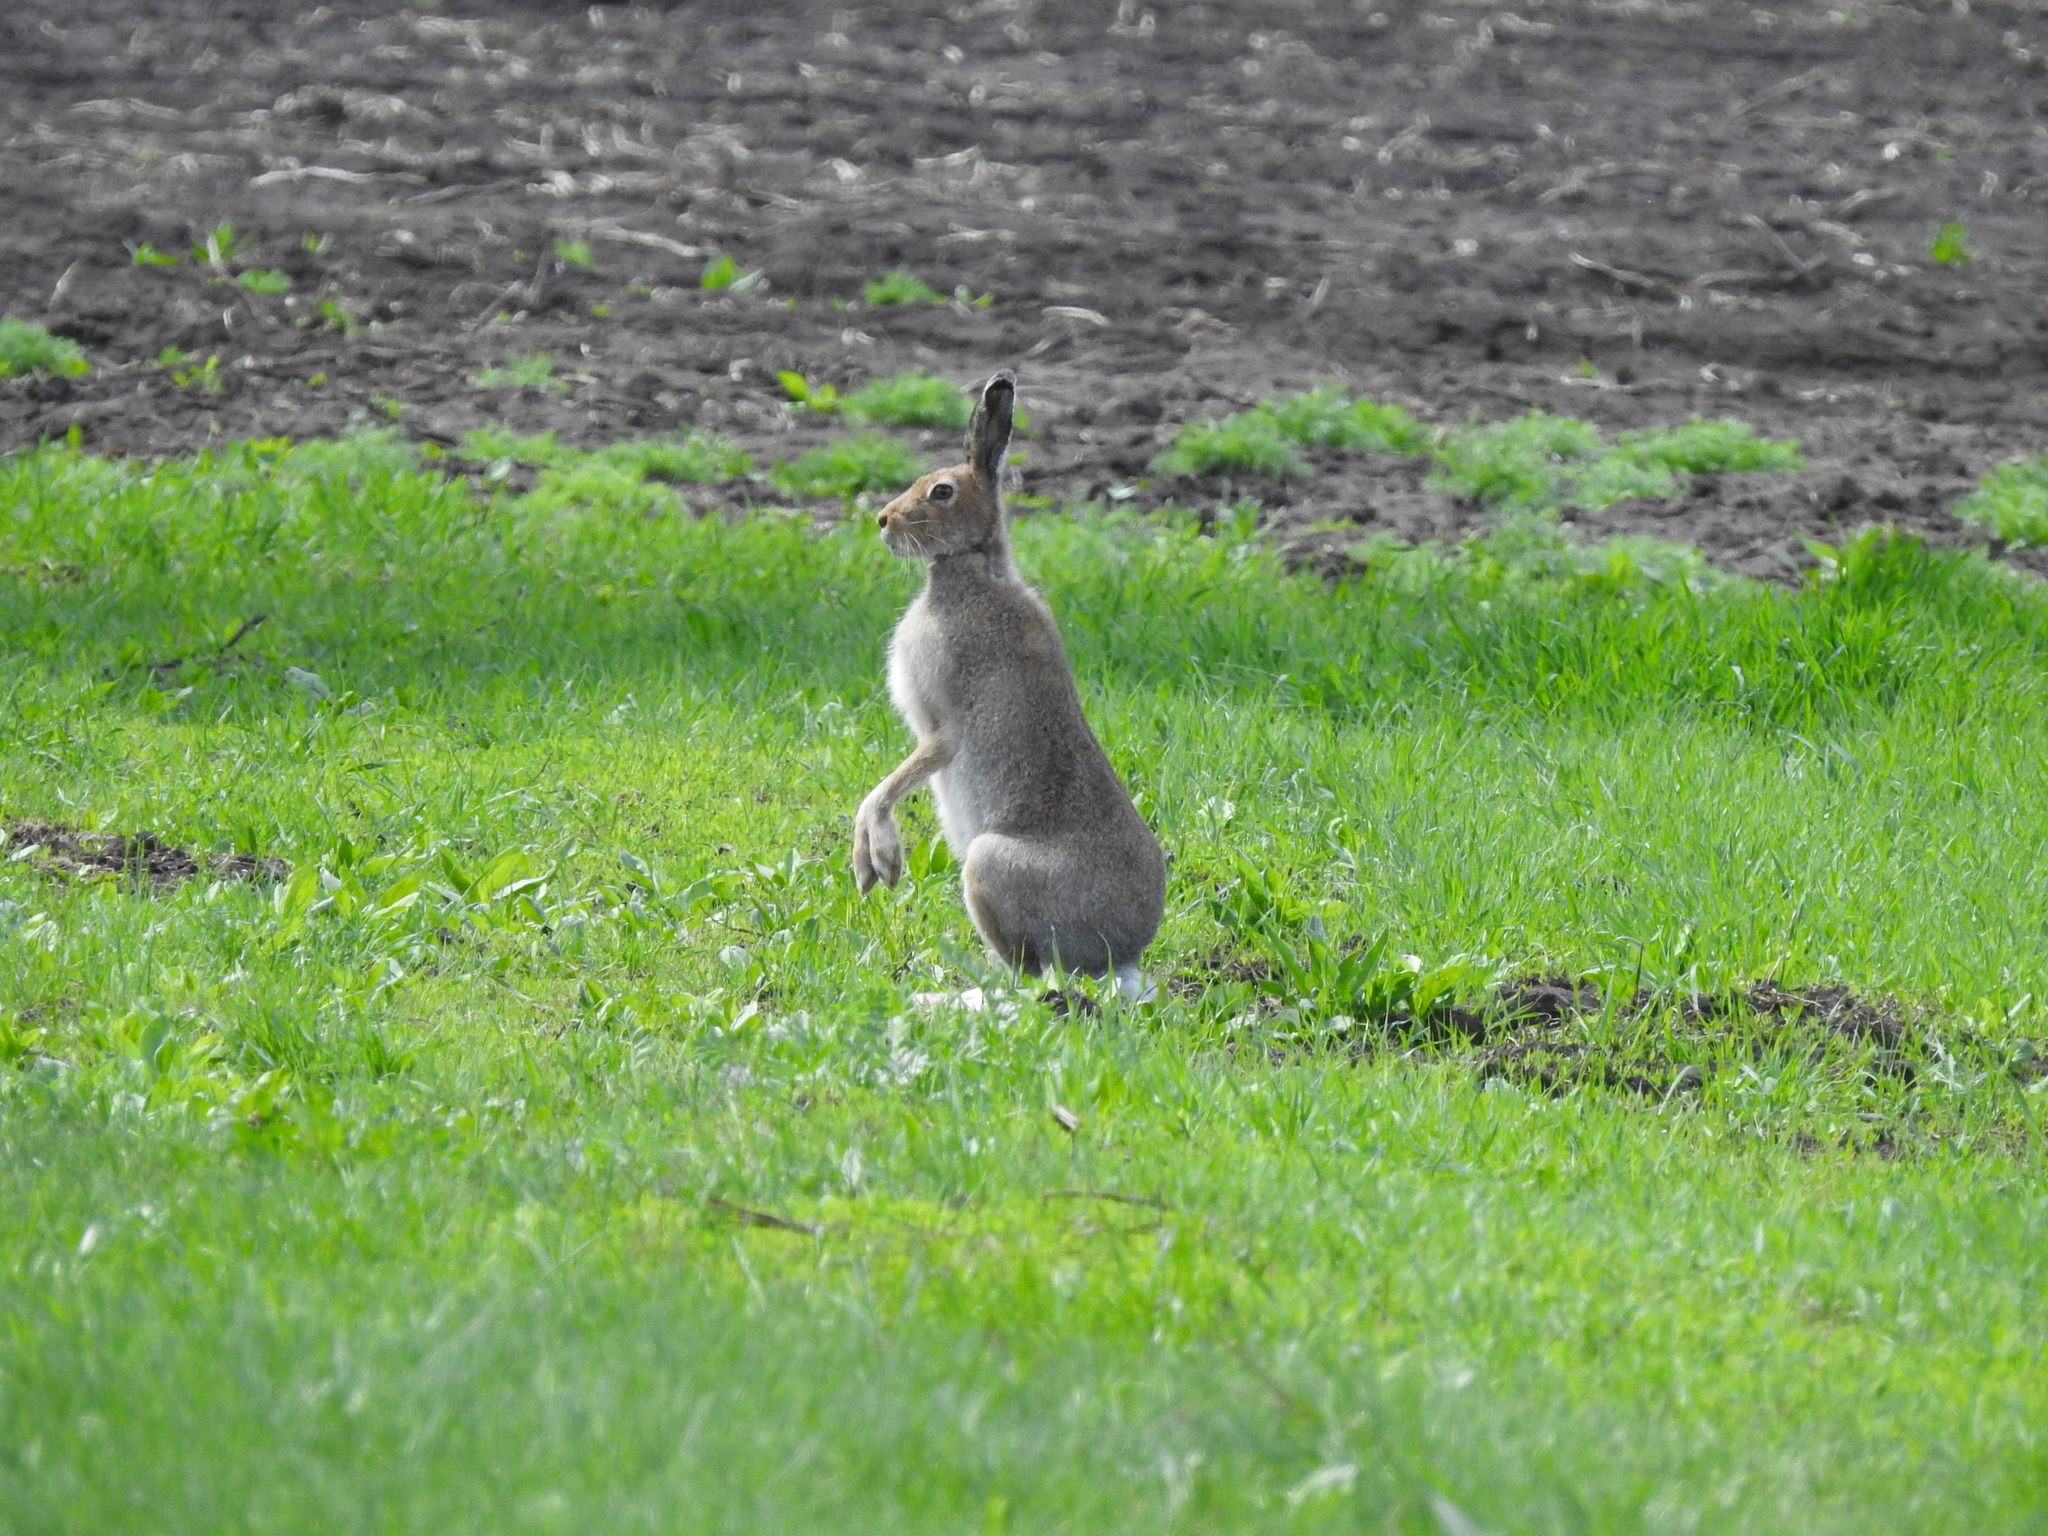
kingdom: Animalia
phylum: Chordata
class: Mammalia
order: Lagomorpha
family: Leporidae
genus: Lepus
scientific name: Lepus timidus
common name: Mountain hare
